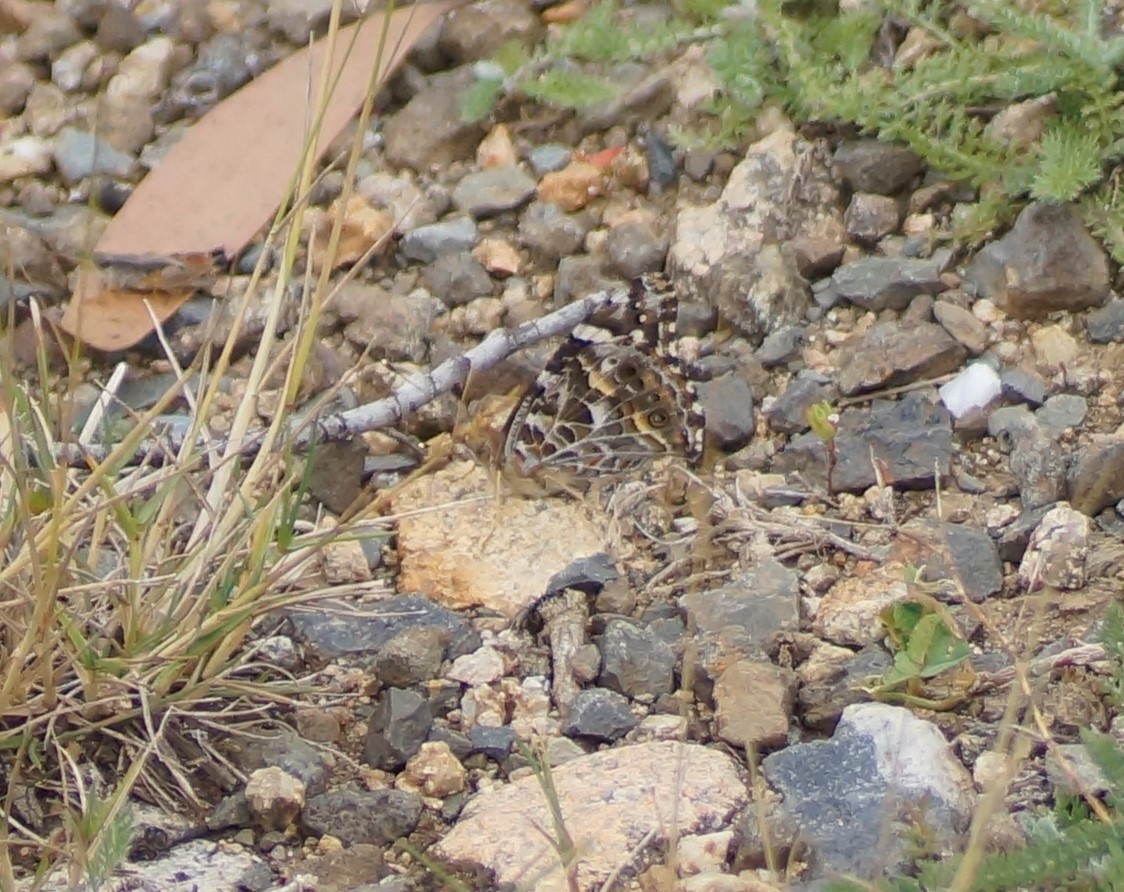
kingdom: Animalia
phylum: Arthropoda
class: Insecta
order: Lepidoptera
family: Nymphalidae
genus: Vanessa
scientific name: Vanessa kershawi
